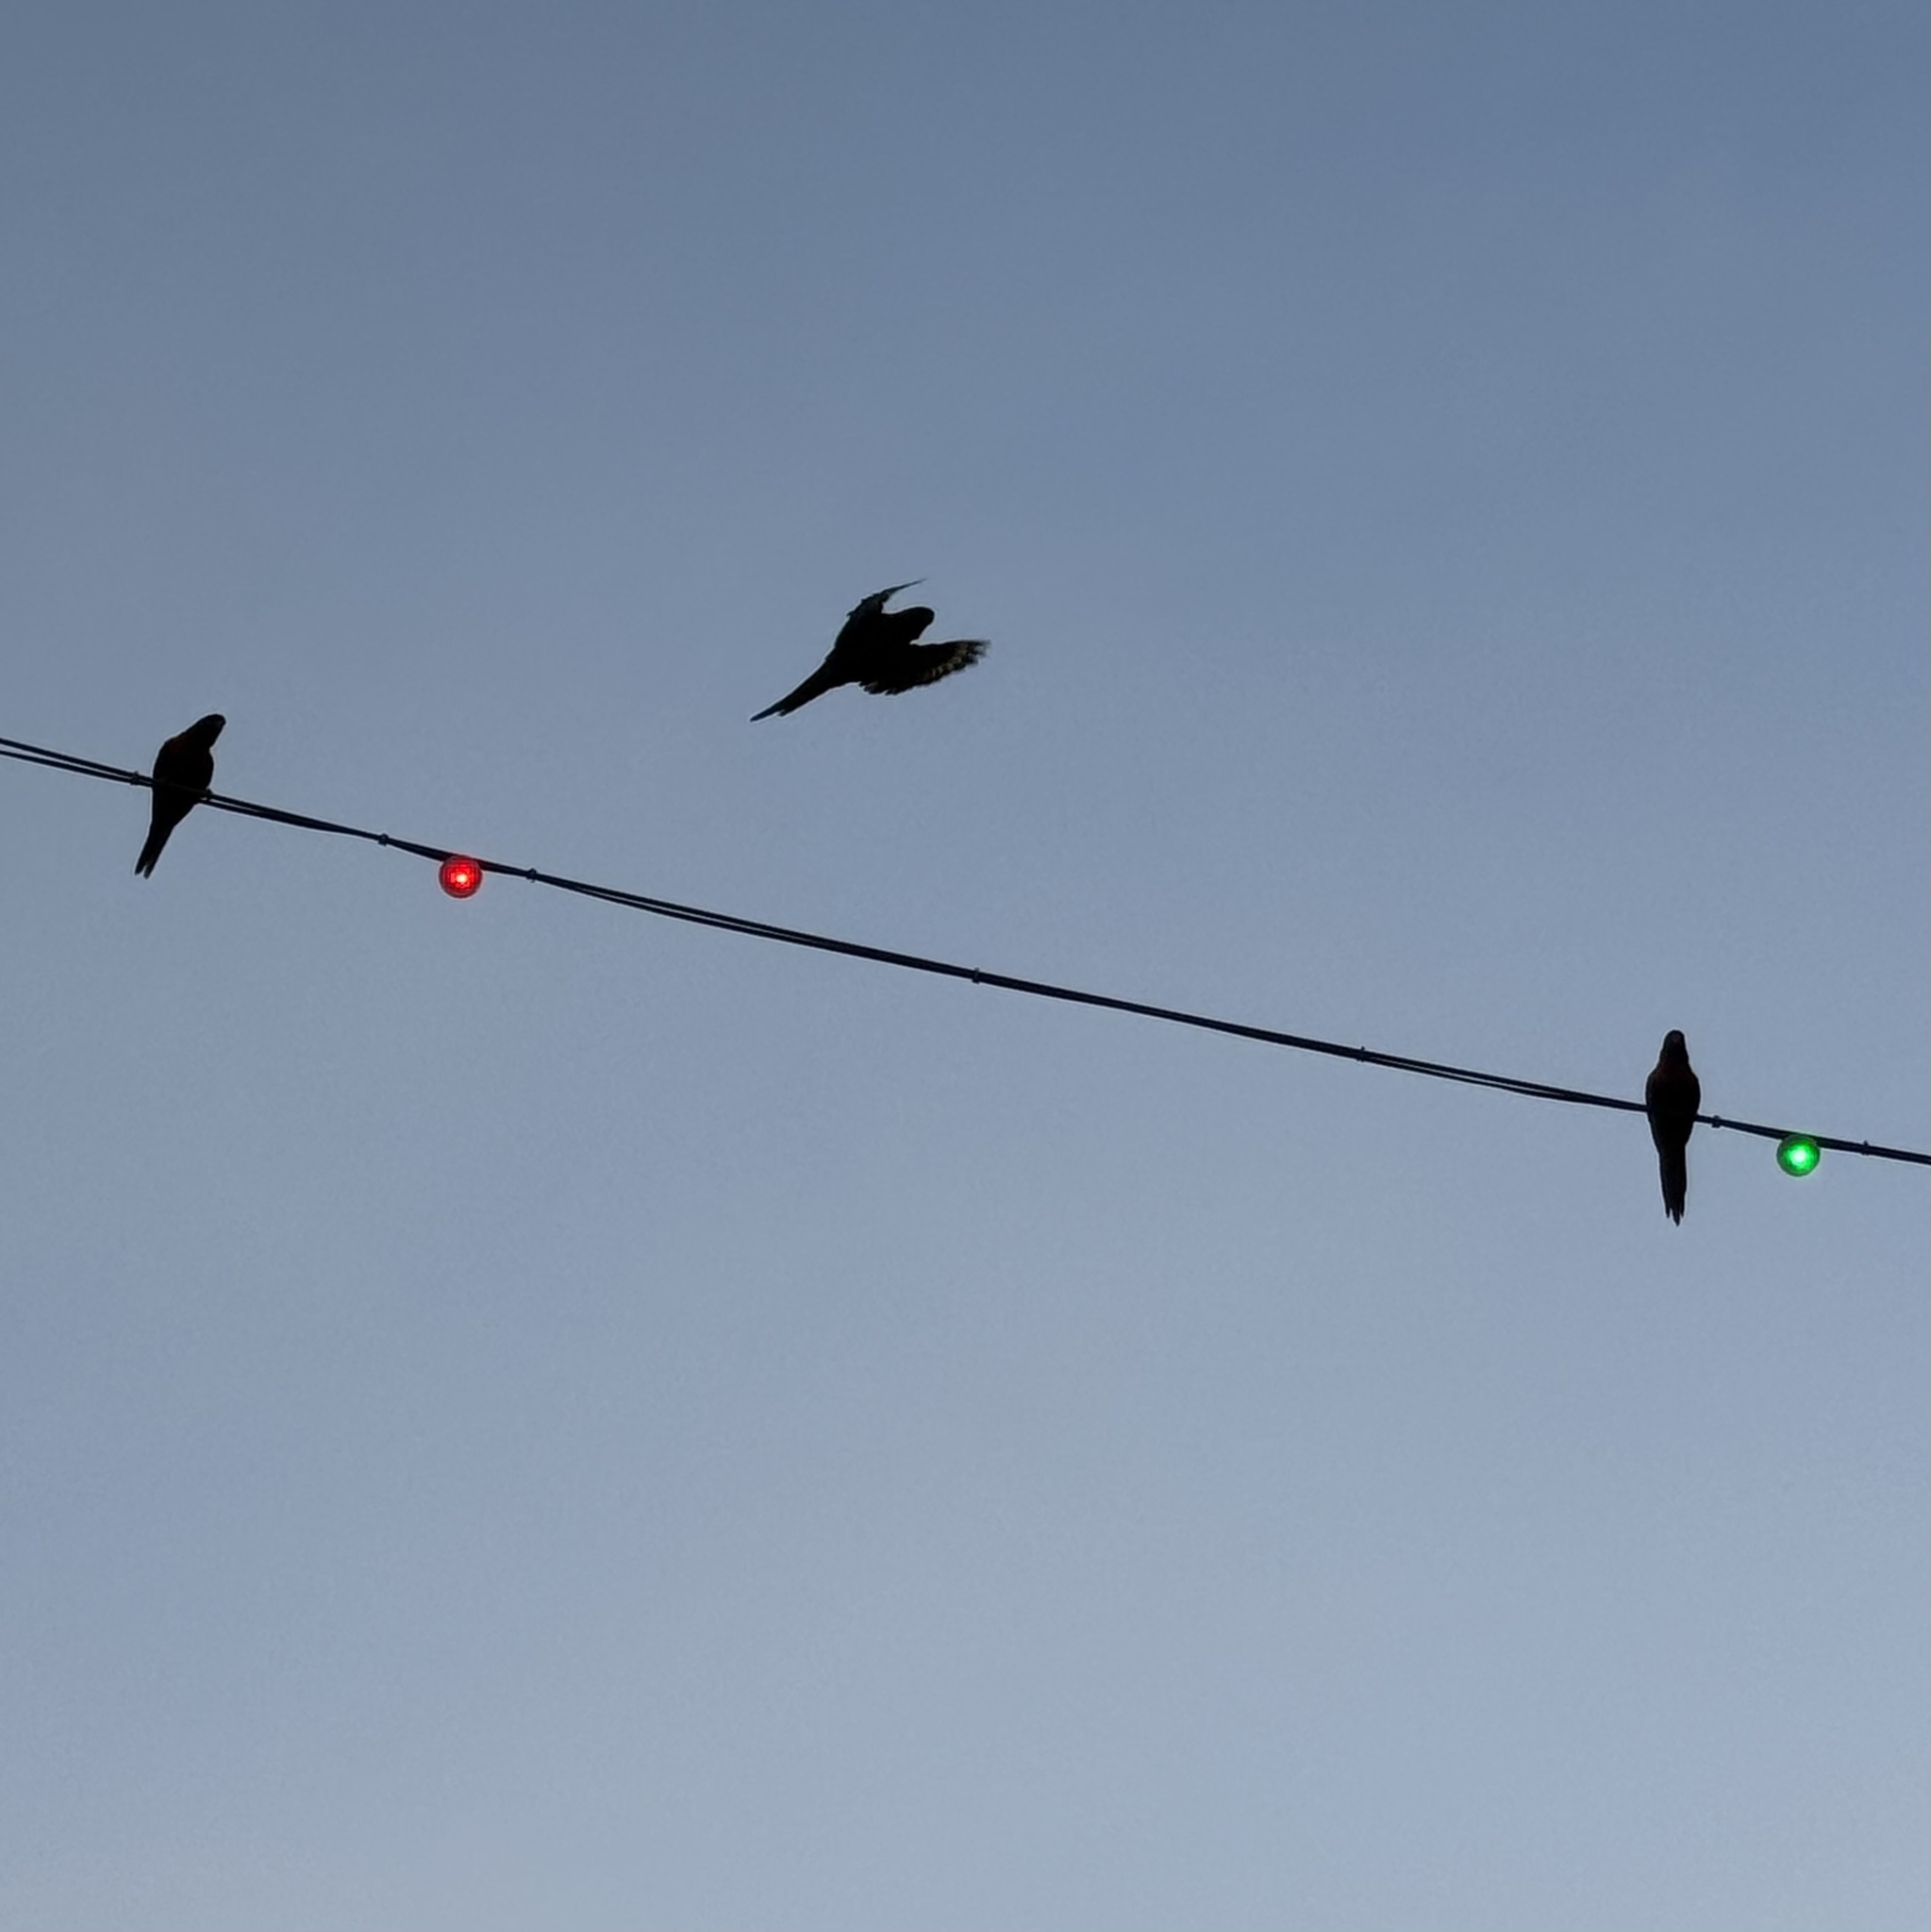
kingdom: Animalia
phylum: Chordata
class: Aves
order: Psittaciformes
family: Psittacidae
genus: Trichoglossus
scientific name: Trichoglossus haematodus
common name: Coconut lorikeet
